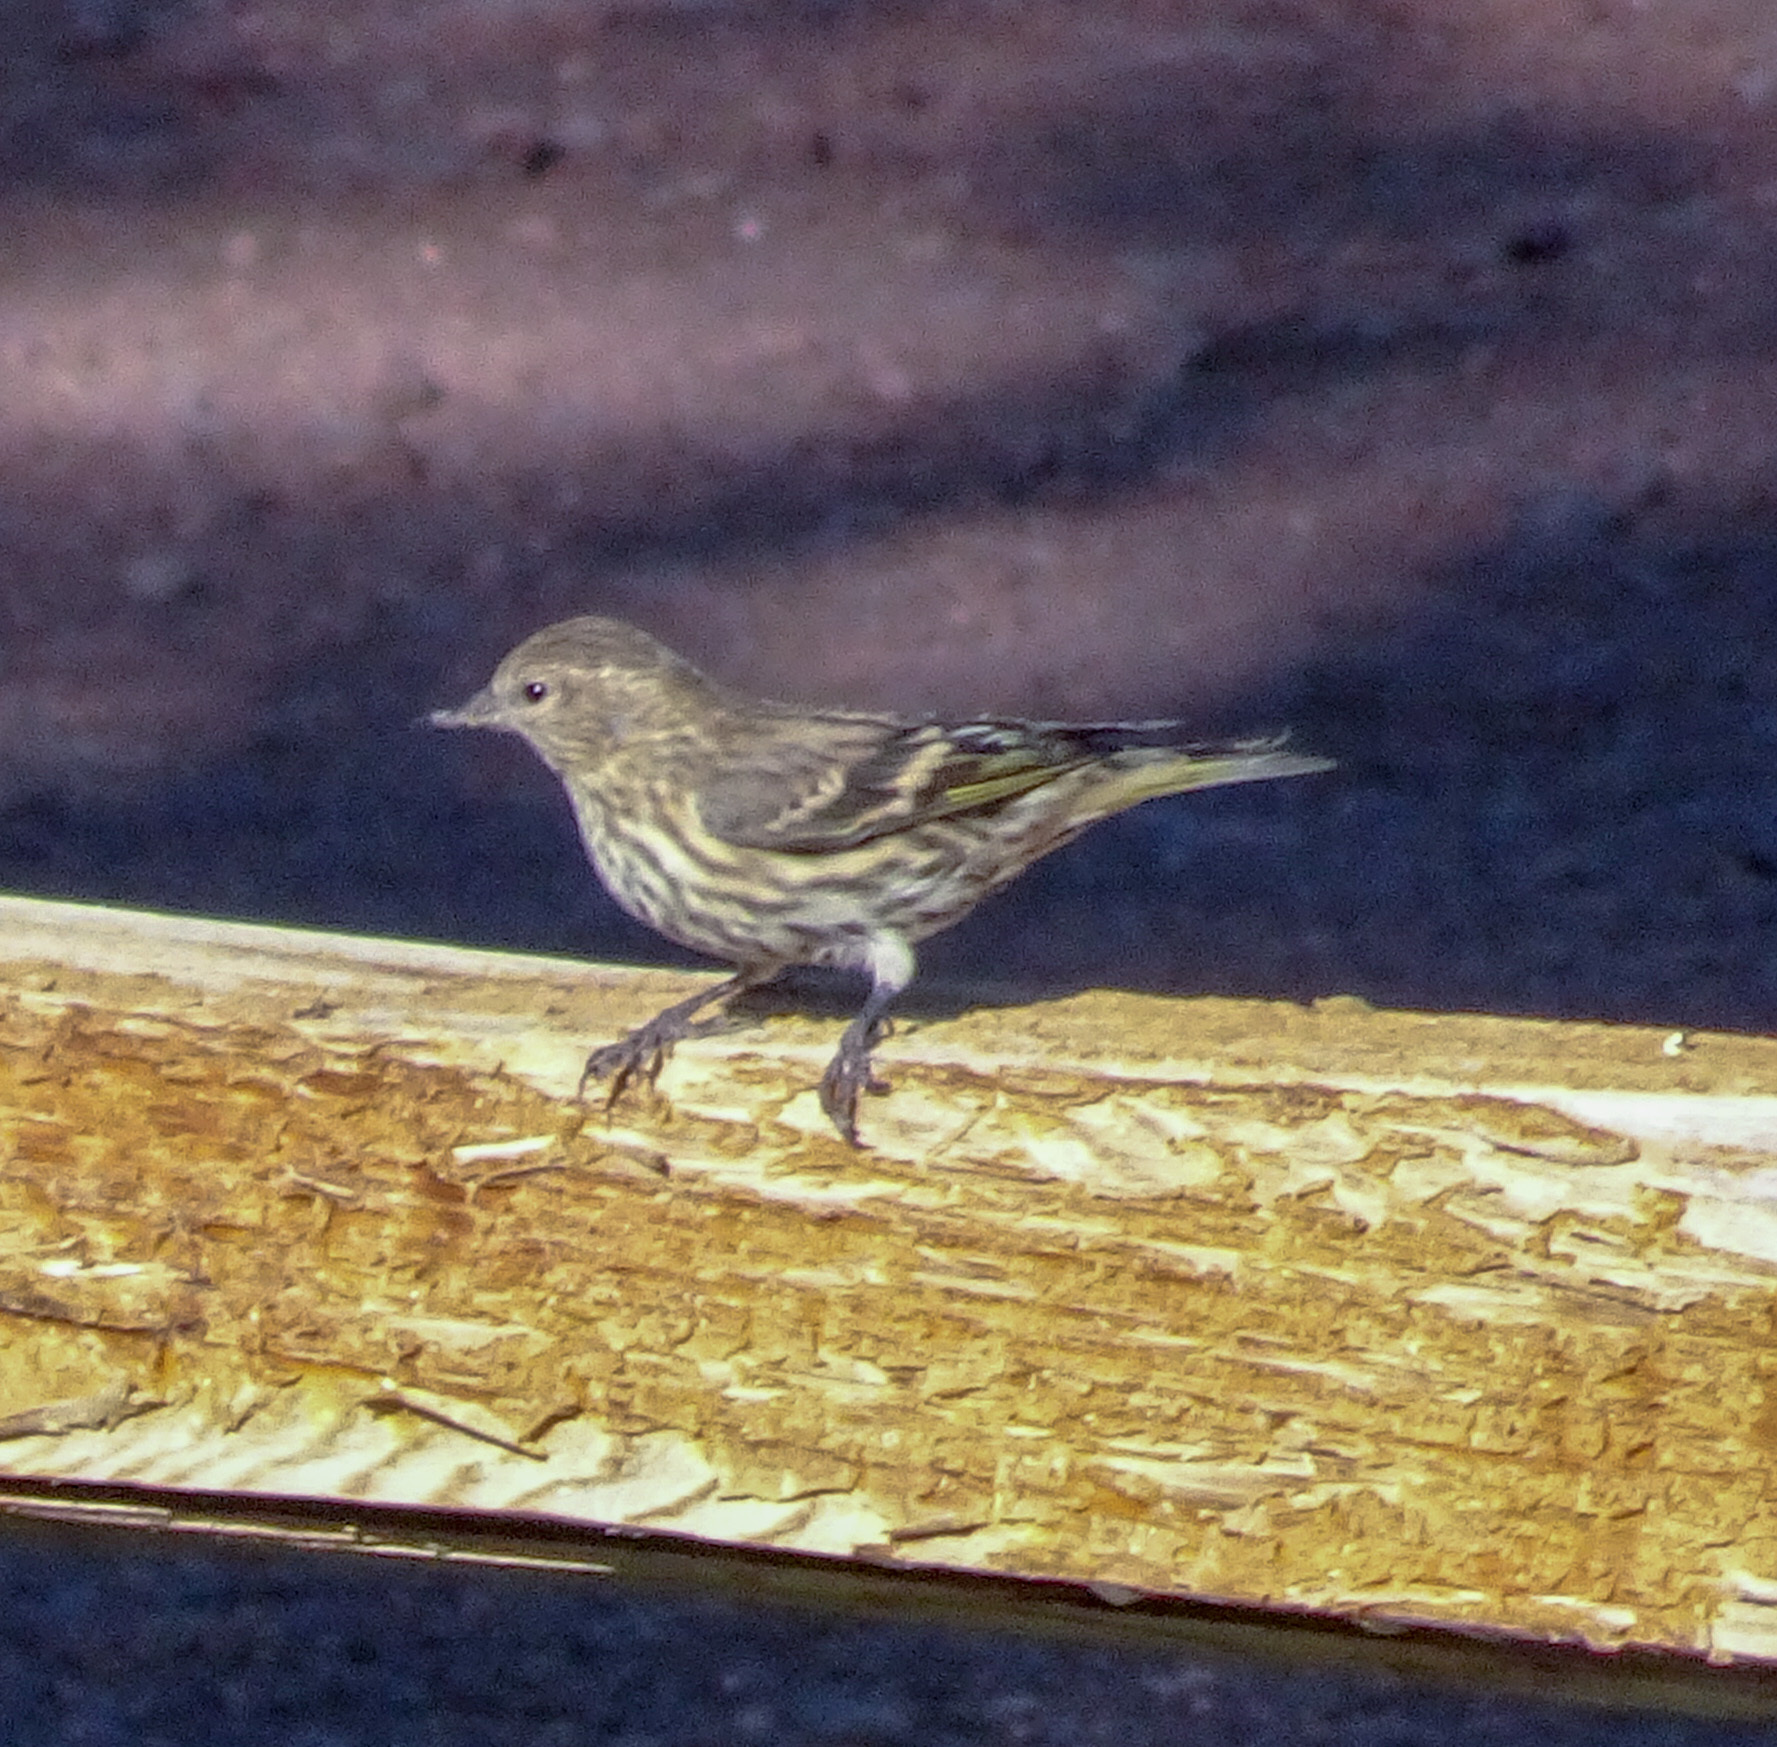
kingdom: Animalia
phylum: Chordata
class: Aves
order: Passeriformes
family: Fringillidae
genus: Spinus
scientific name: Spinus pinus
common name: Pine siskin
